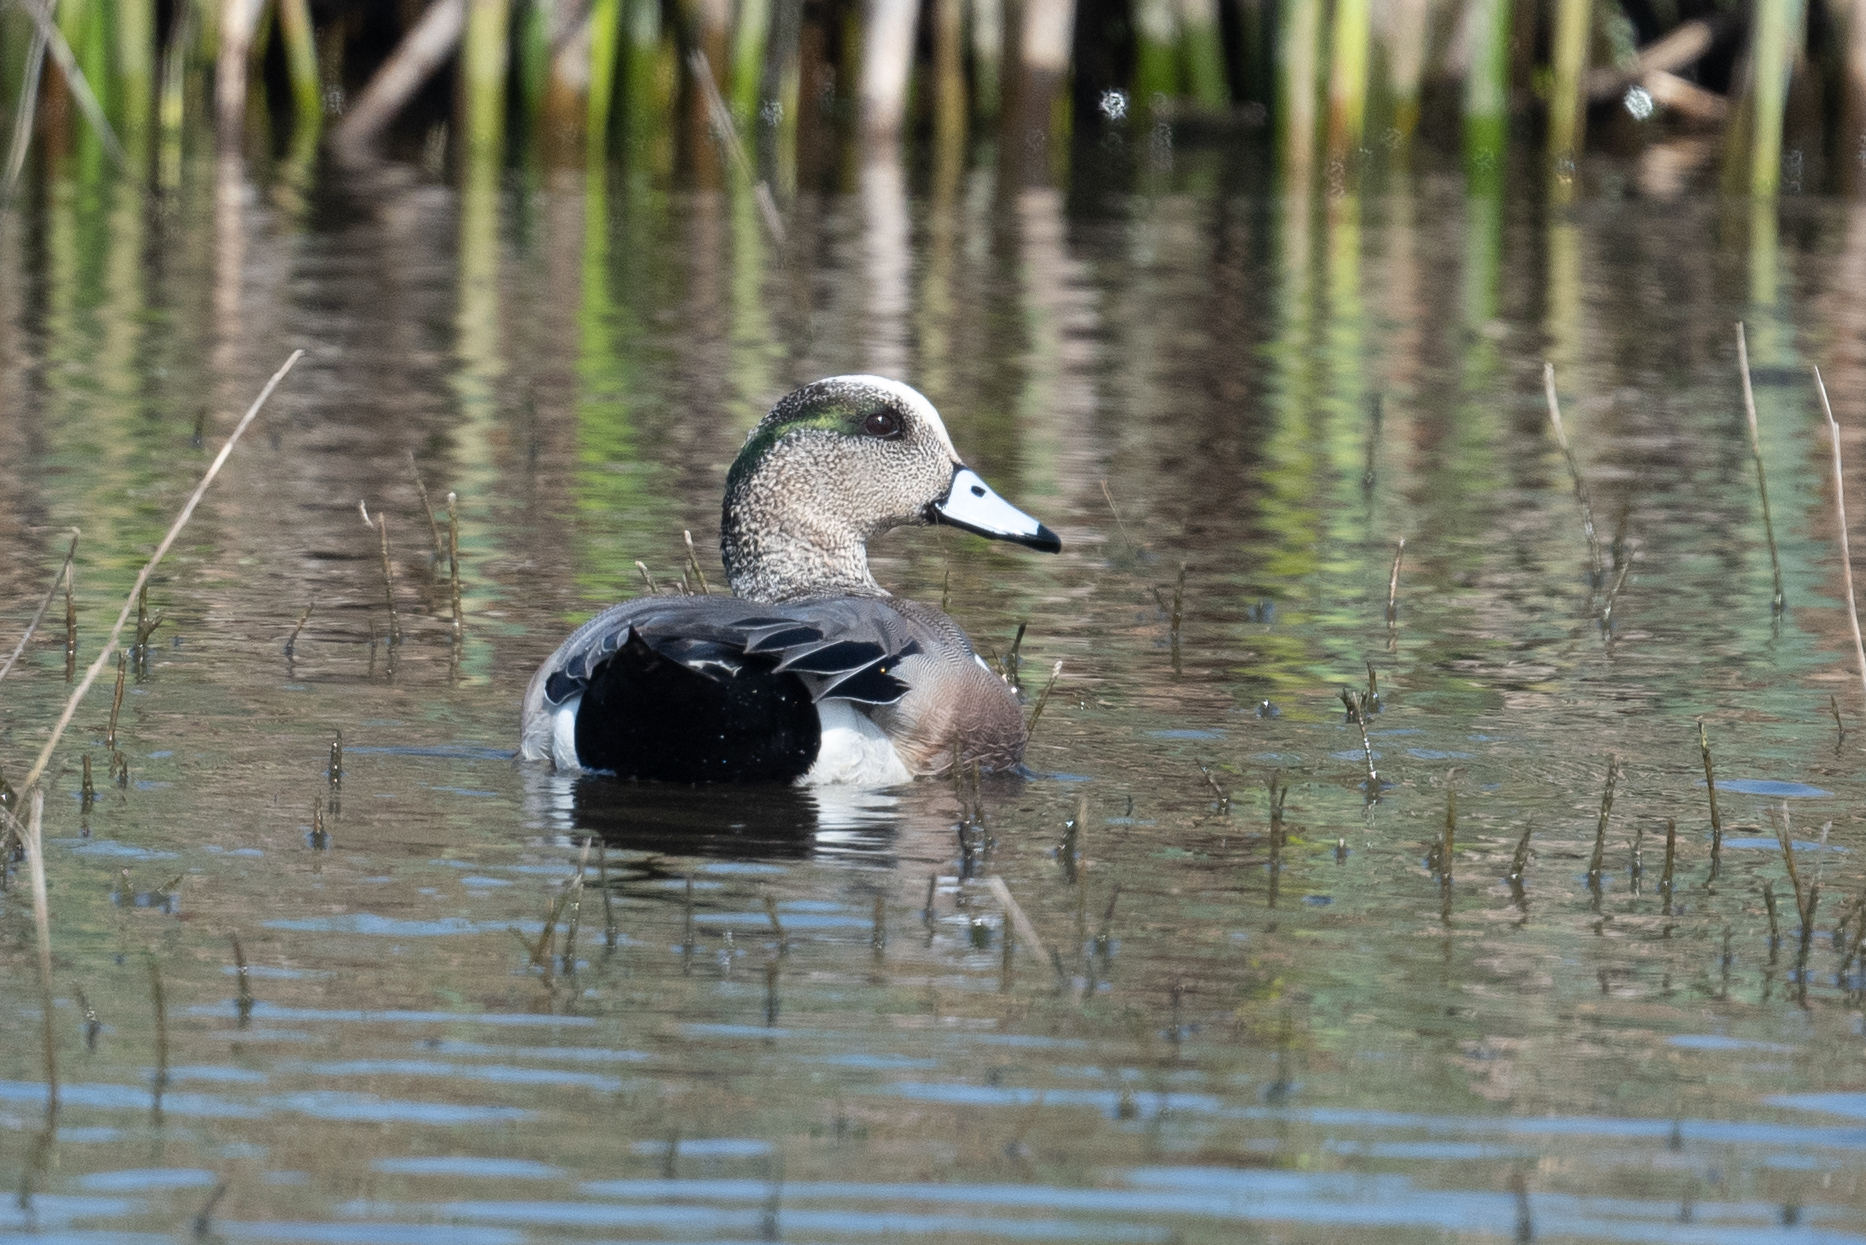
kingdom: Animalia
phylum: Chordata
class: Aves
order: Anseriformes
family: Anatidae
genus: Mareca
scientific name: Mareca americana
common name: American wigeon
